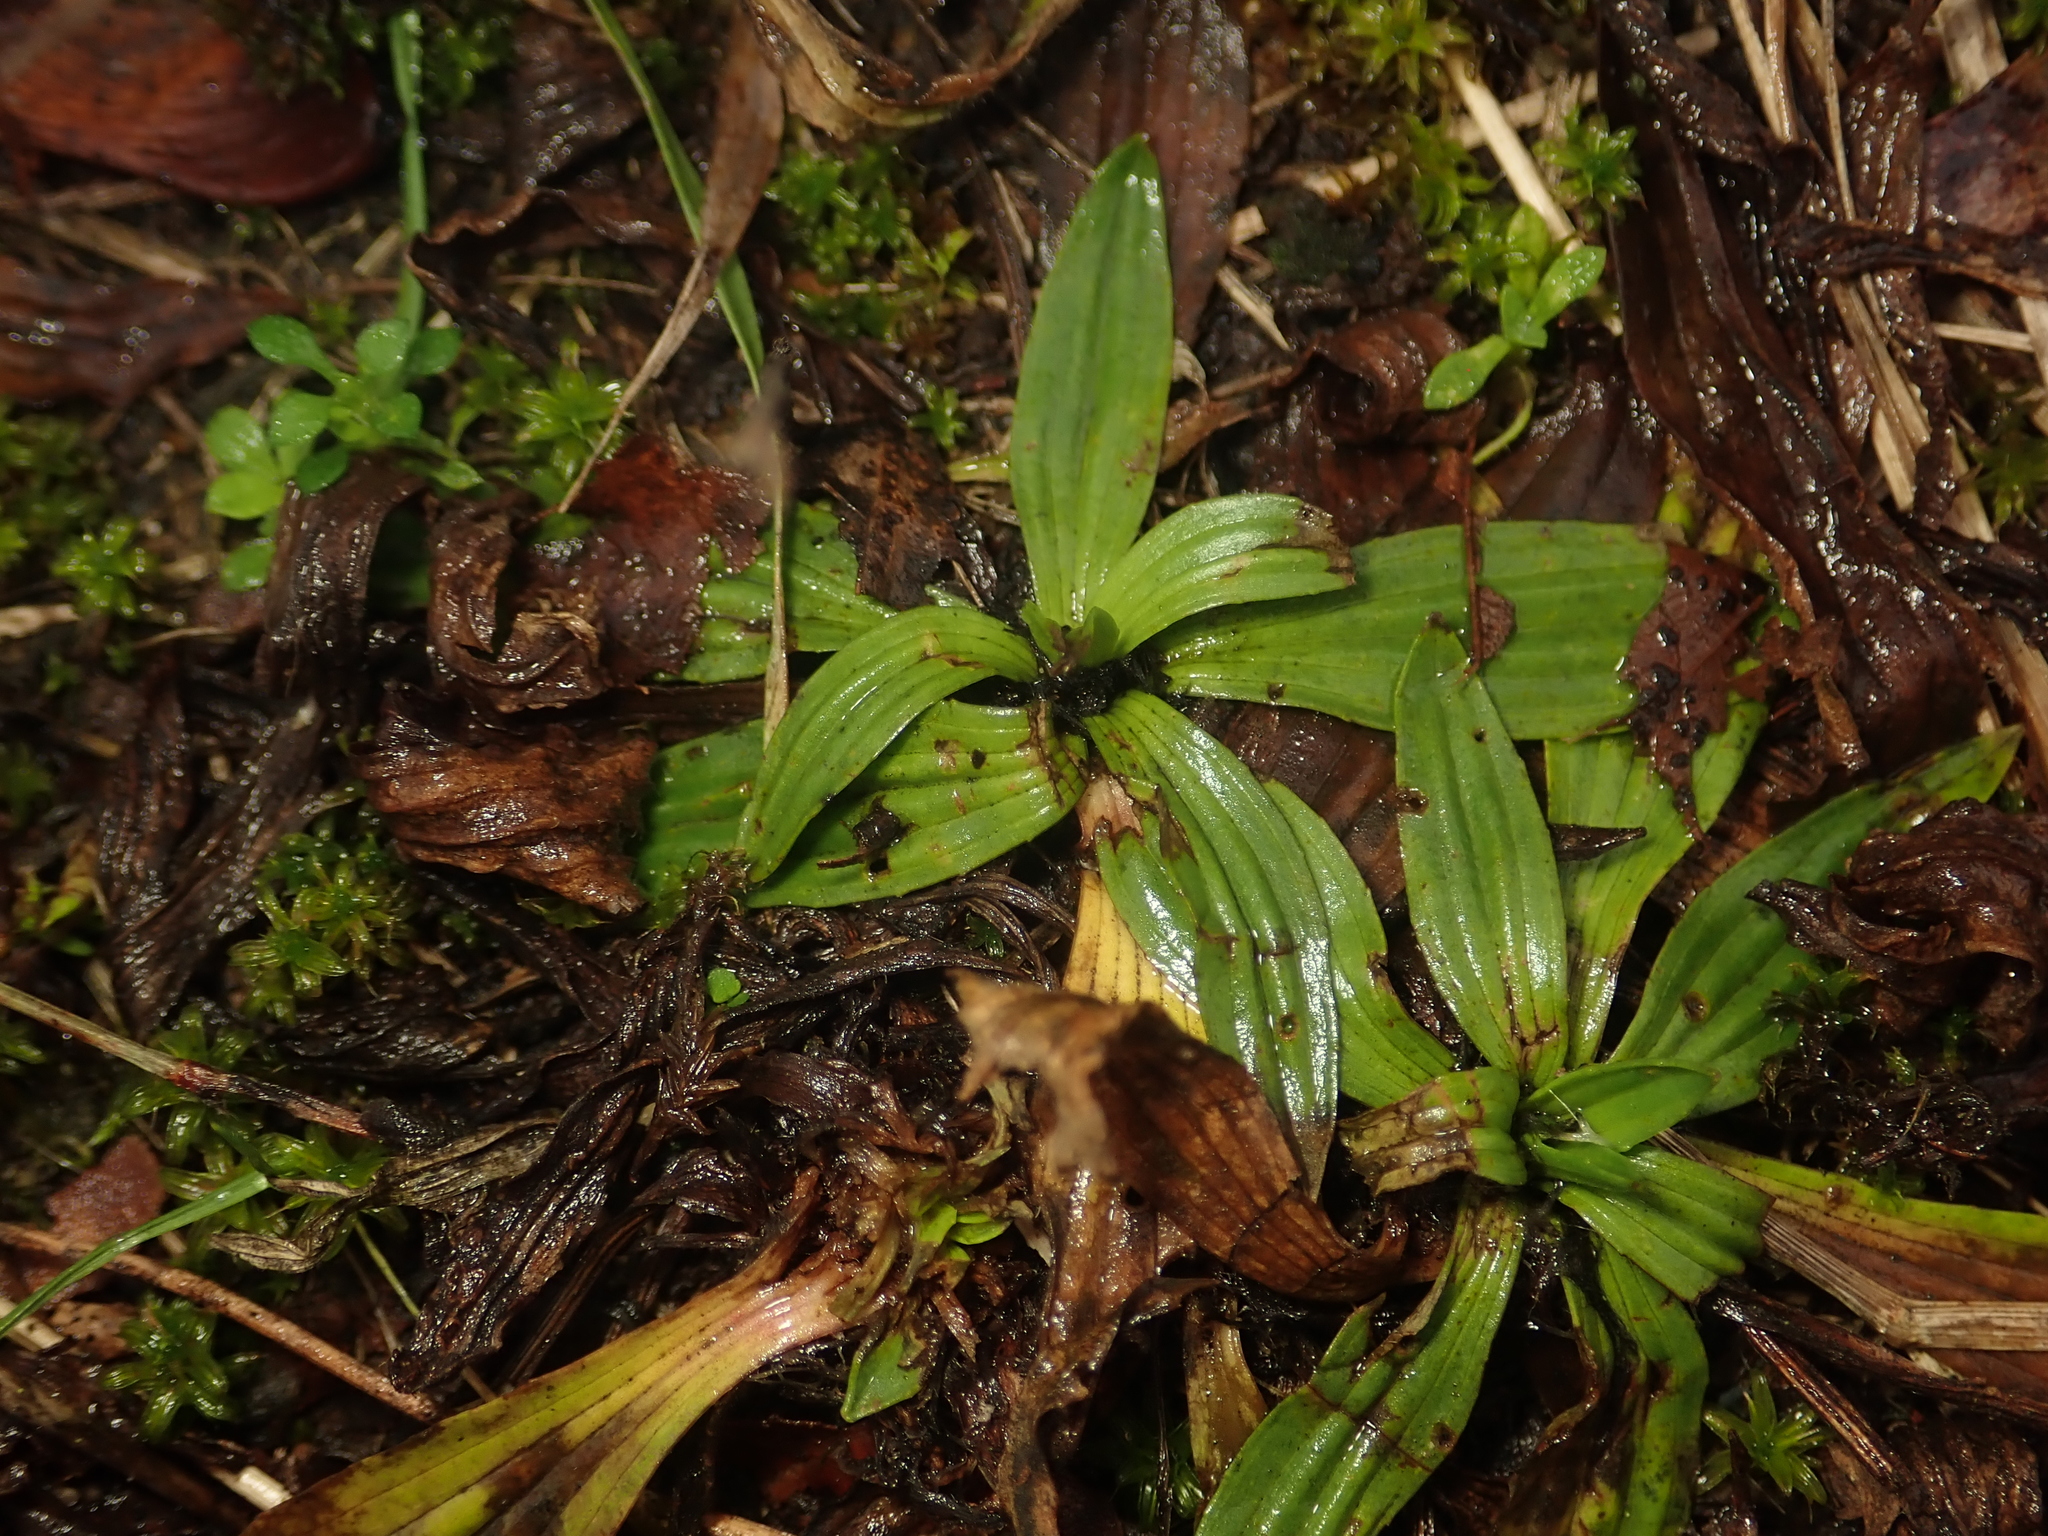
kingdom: Plantae
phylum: Tracheophyta
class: Magnoliopsida
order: Lamiales
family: Plantaginaceae
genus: Plantago
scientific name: Plantago lanceolata
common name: Ribwort plantain
